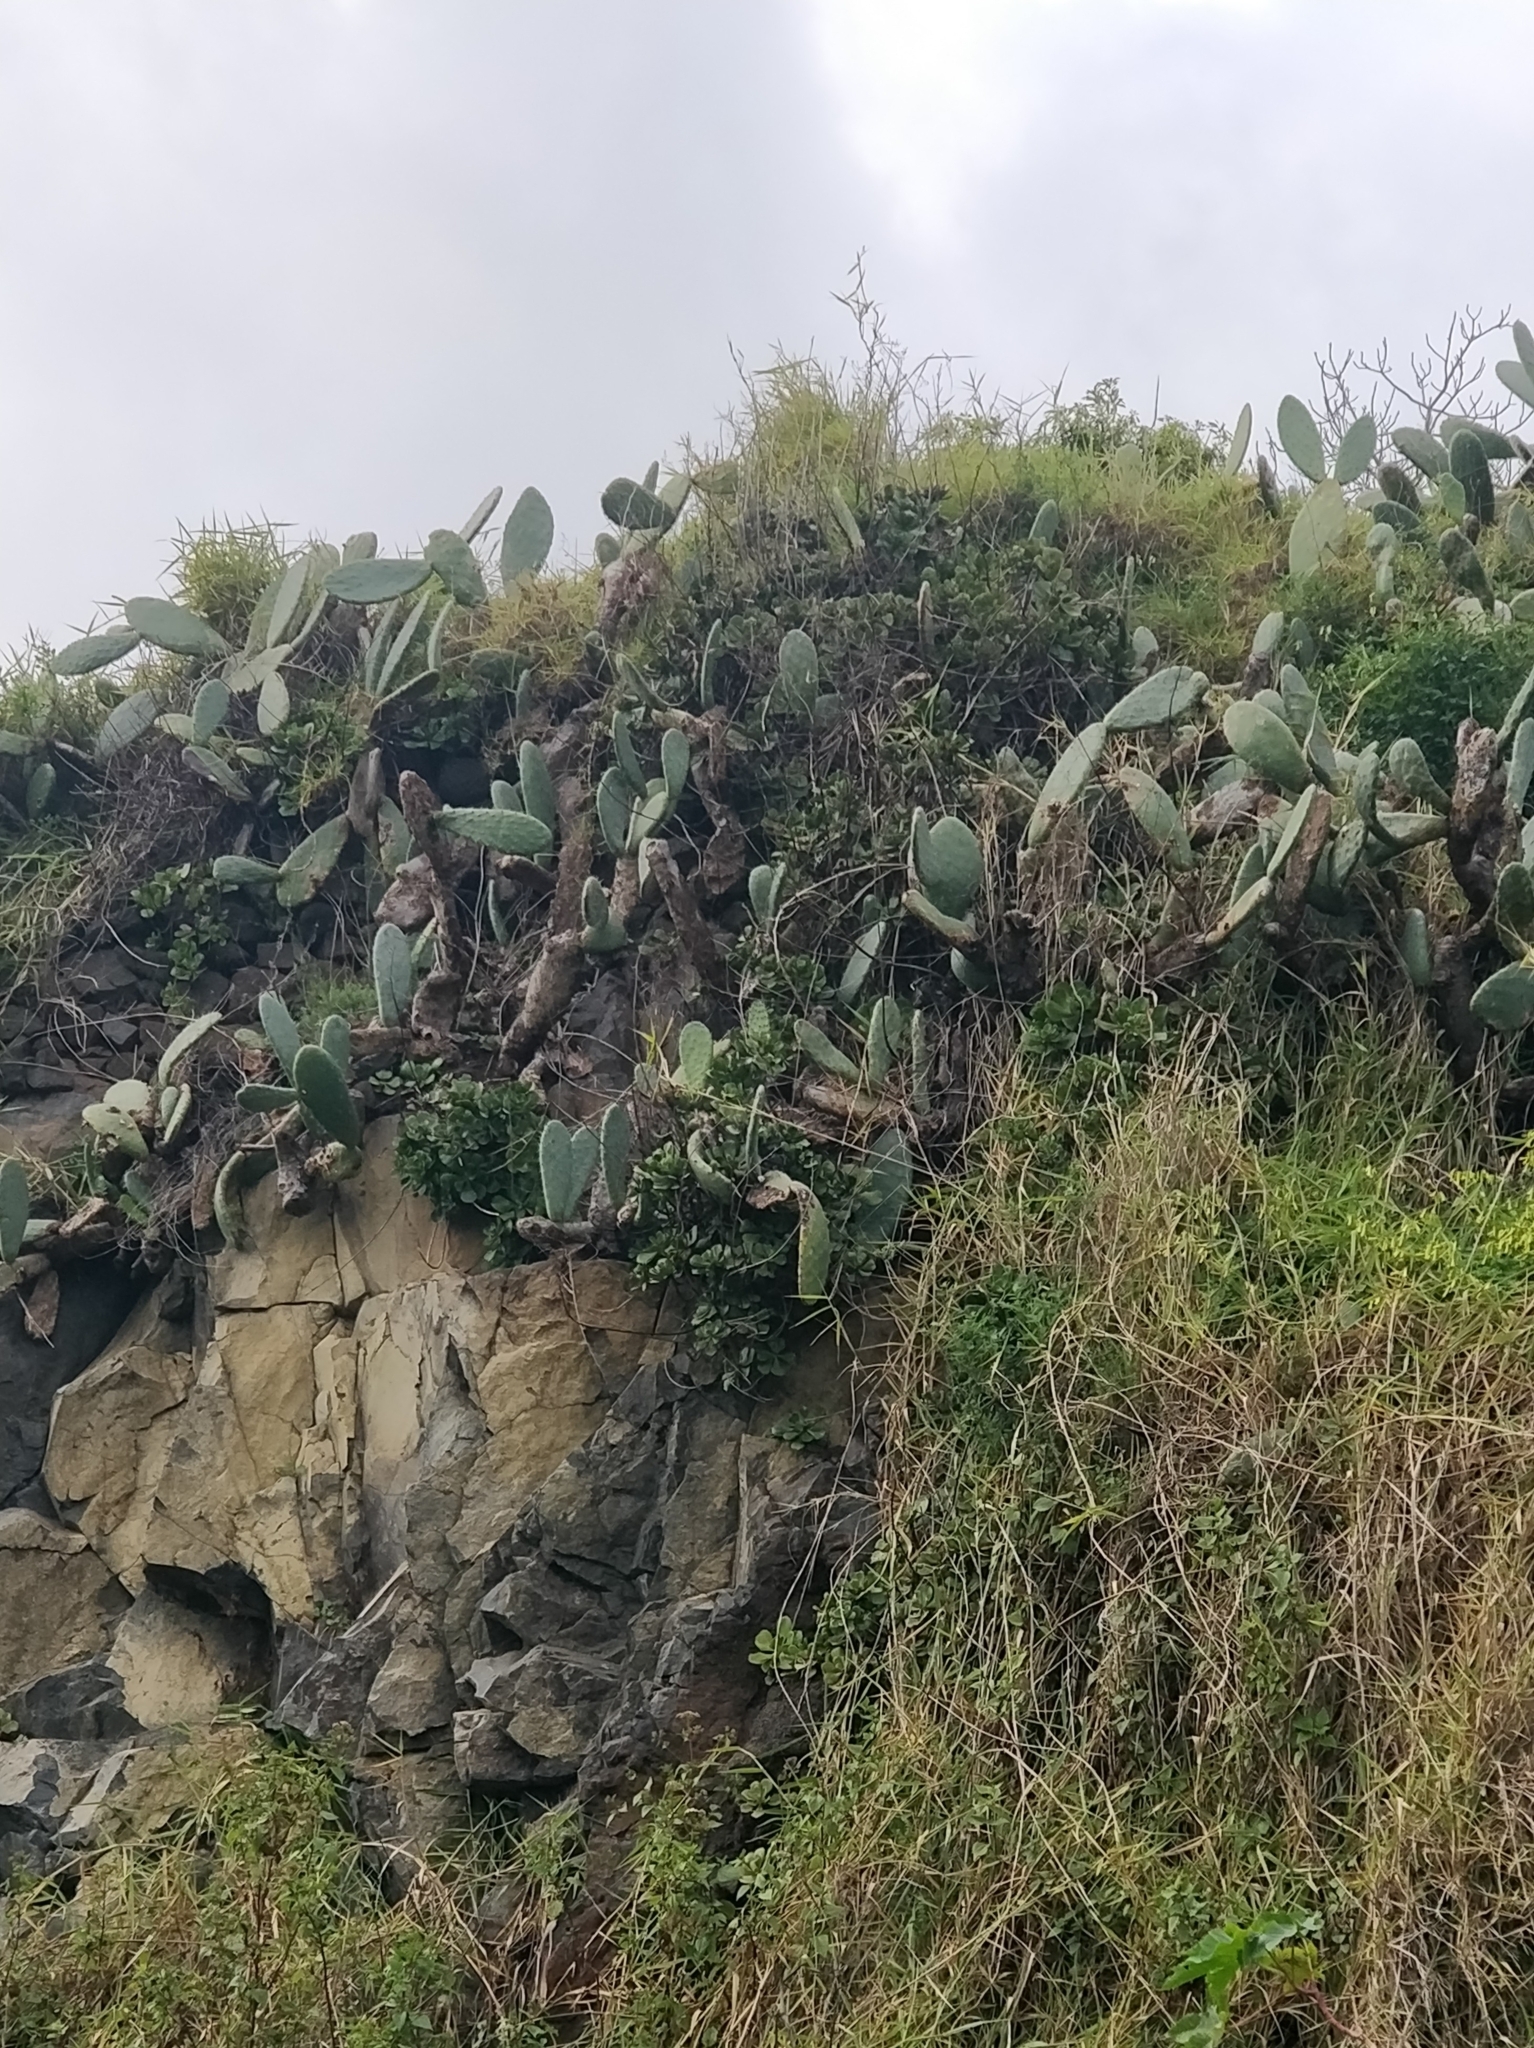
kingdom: Plantae
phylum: Tracheophyta
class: Magnoliopsida
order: Caryophyllales
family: Cactaceae
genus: Opuntia
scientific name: Opuntia ficus-indica
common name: Barbary fig
